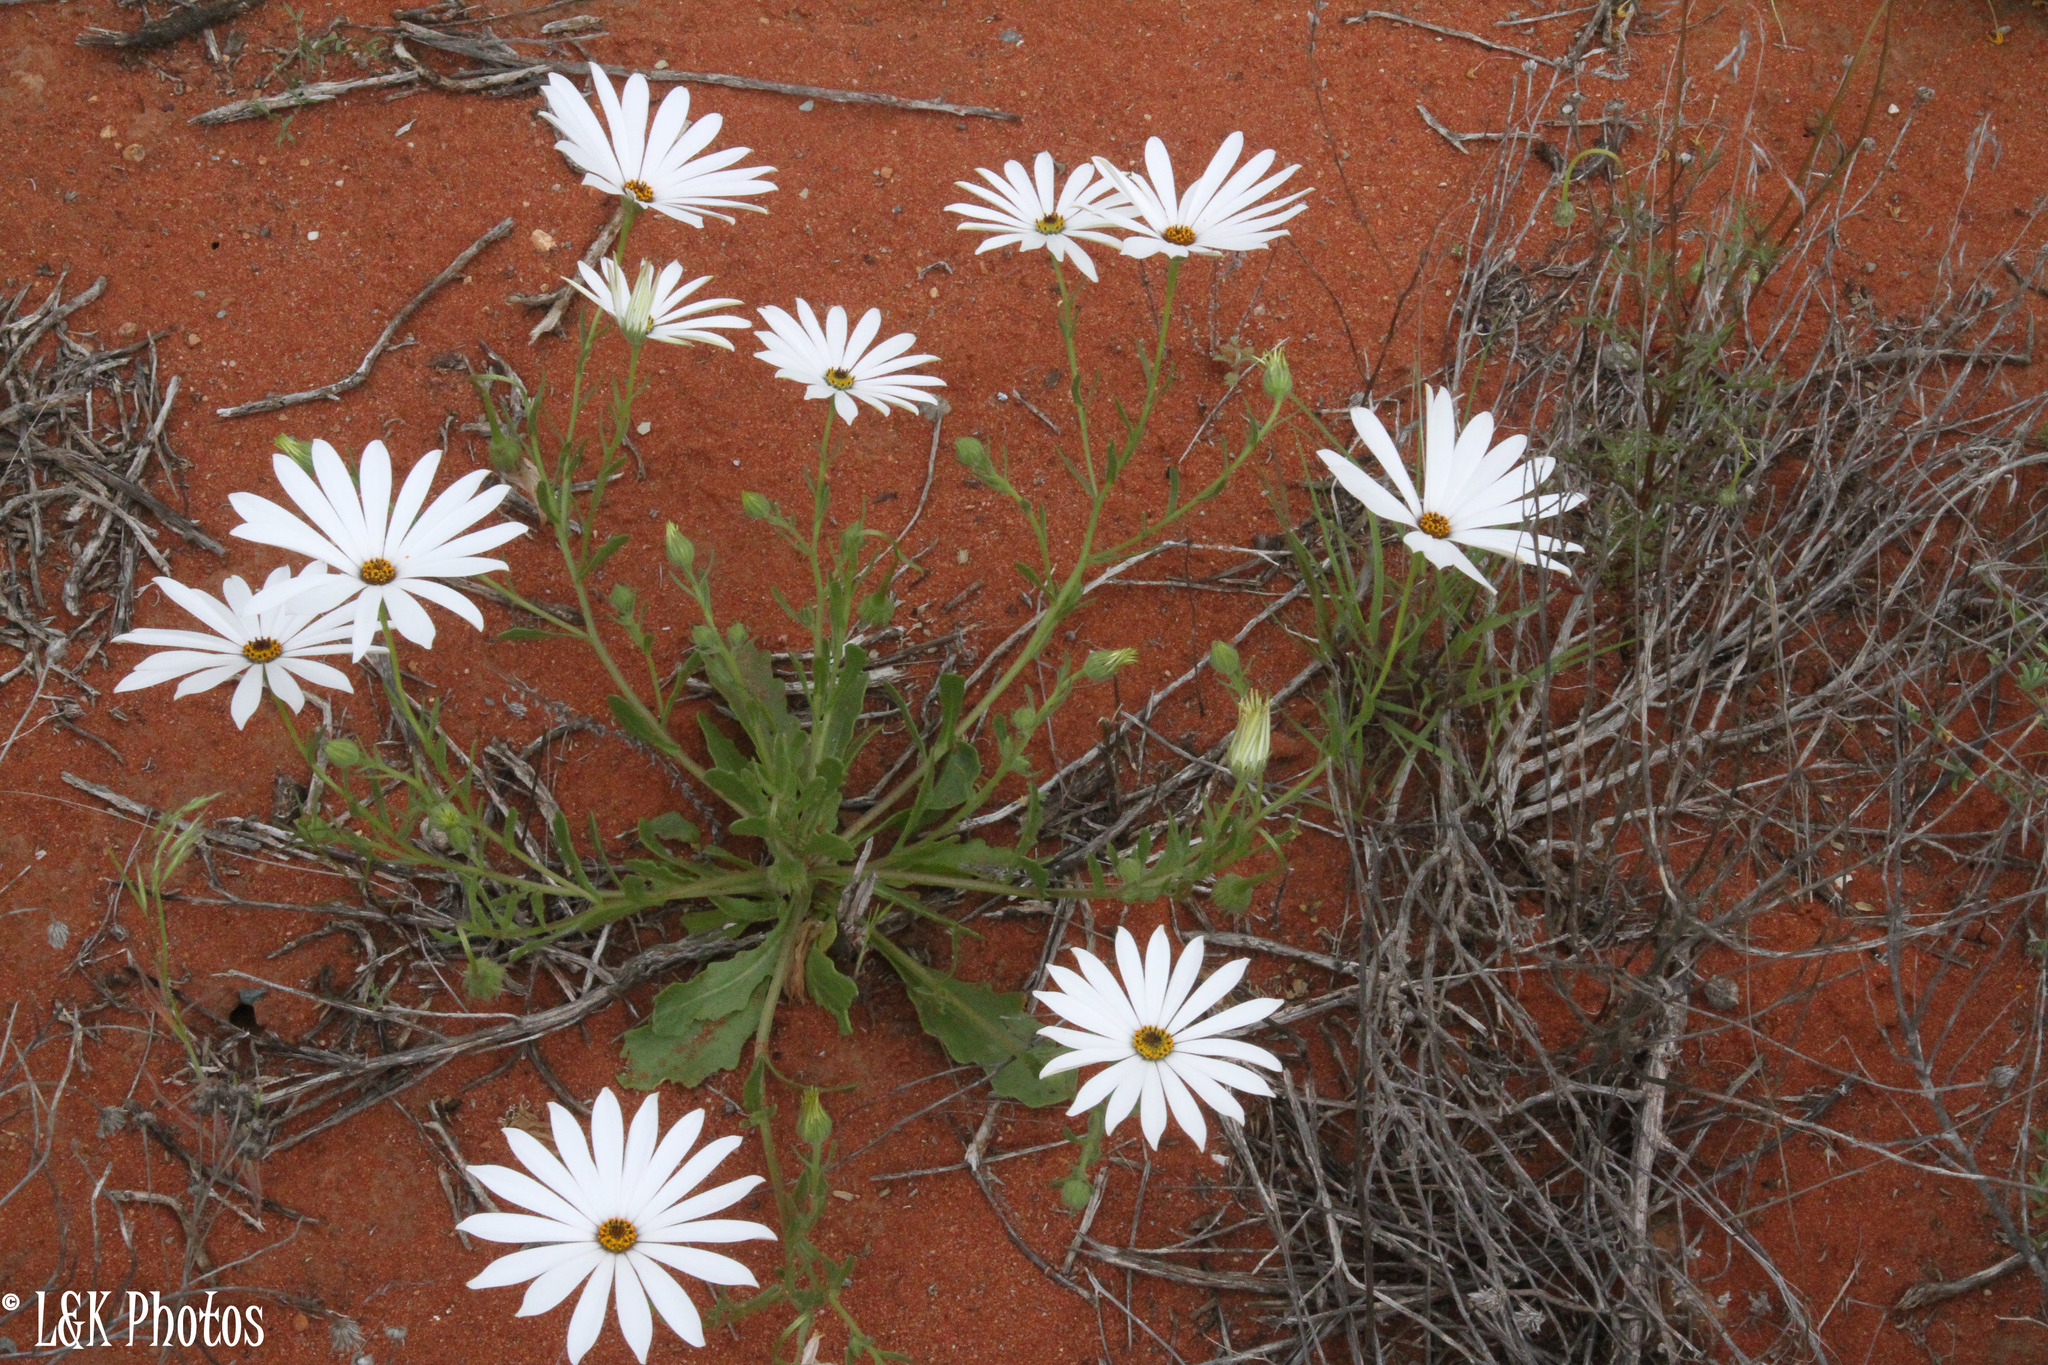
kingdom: Plantae
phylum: Tracheophyta
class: Magnoliopsida
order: Asterales
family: Asteraceae
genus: Dimorphotheca
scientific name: Dimorphotheca pluvialis
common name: Weather prophet
